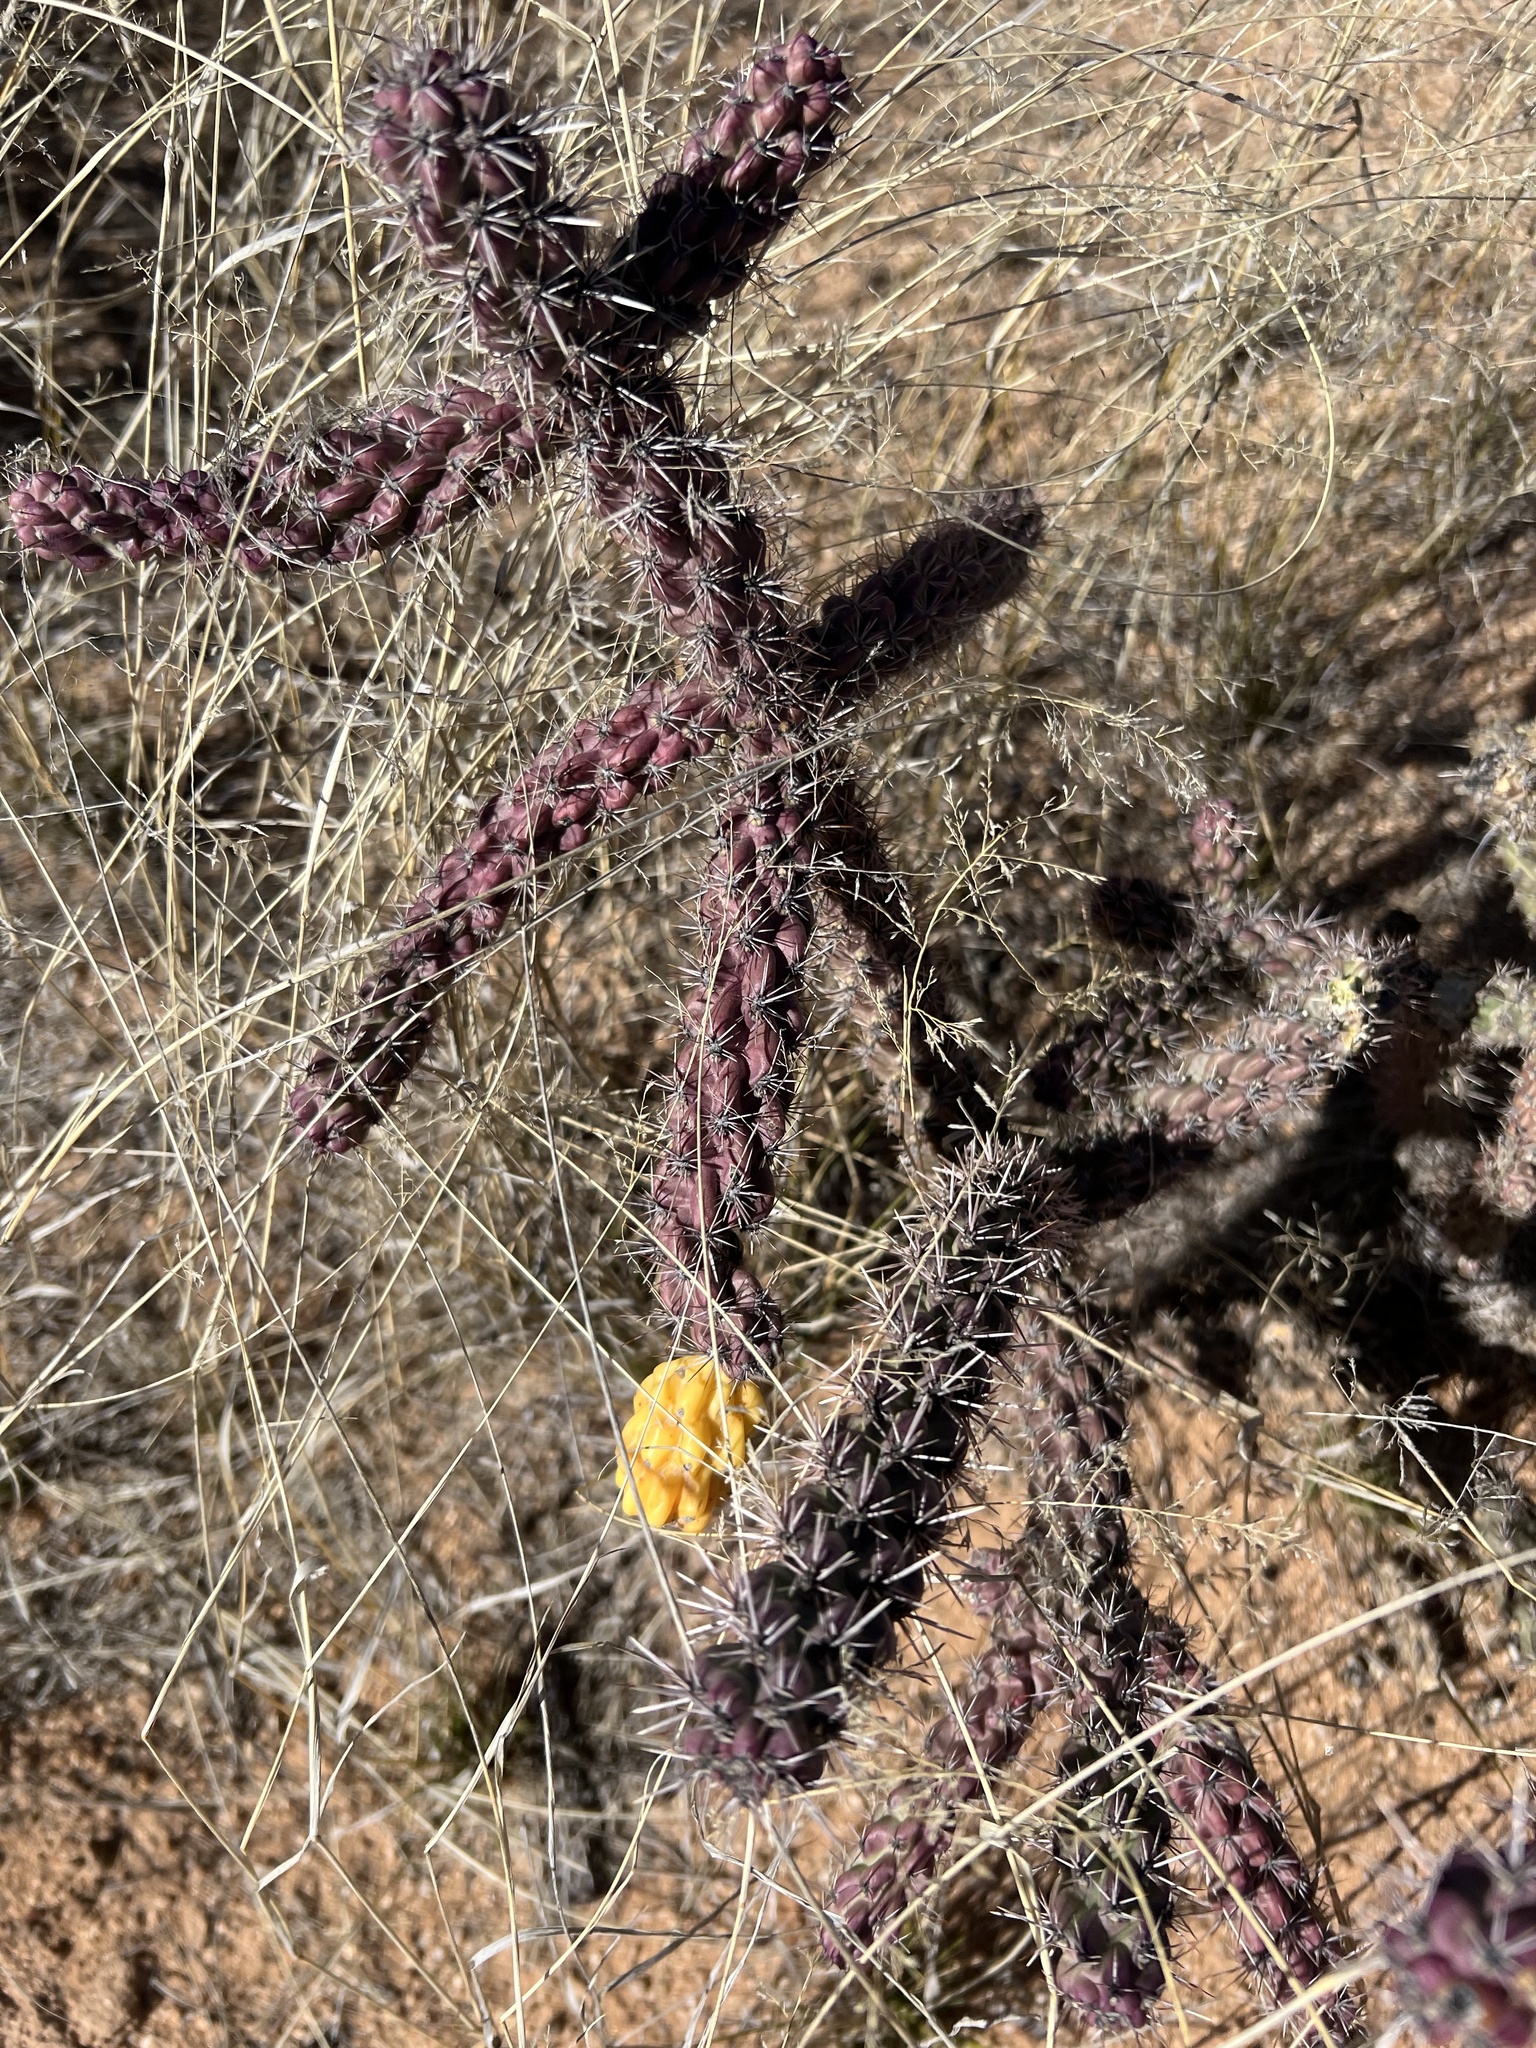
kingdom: Plantae
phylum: Tracheophyta
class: Magnoliopsida
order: Caryophyllales
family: Cactaceae
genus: Cylindropuntia
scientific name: Cylindropuntia imbricata
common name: Candelabrum cactus
